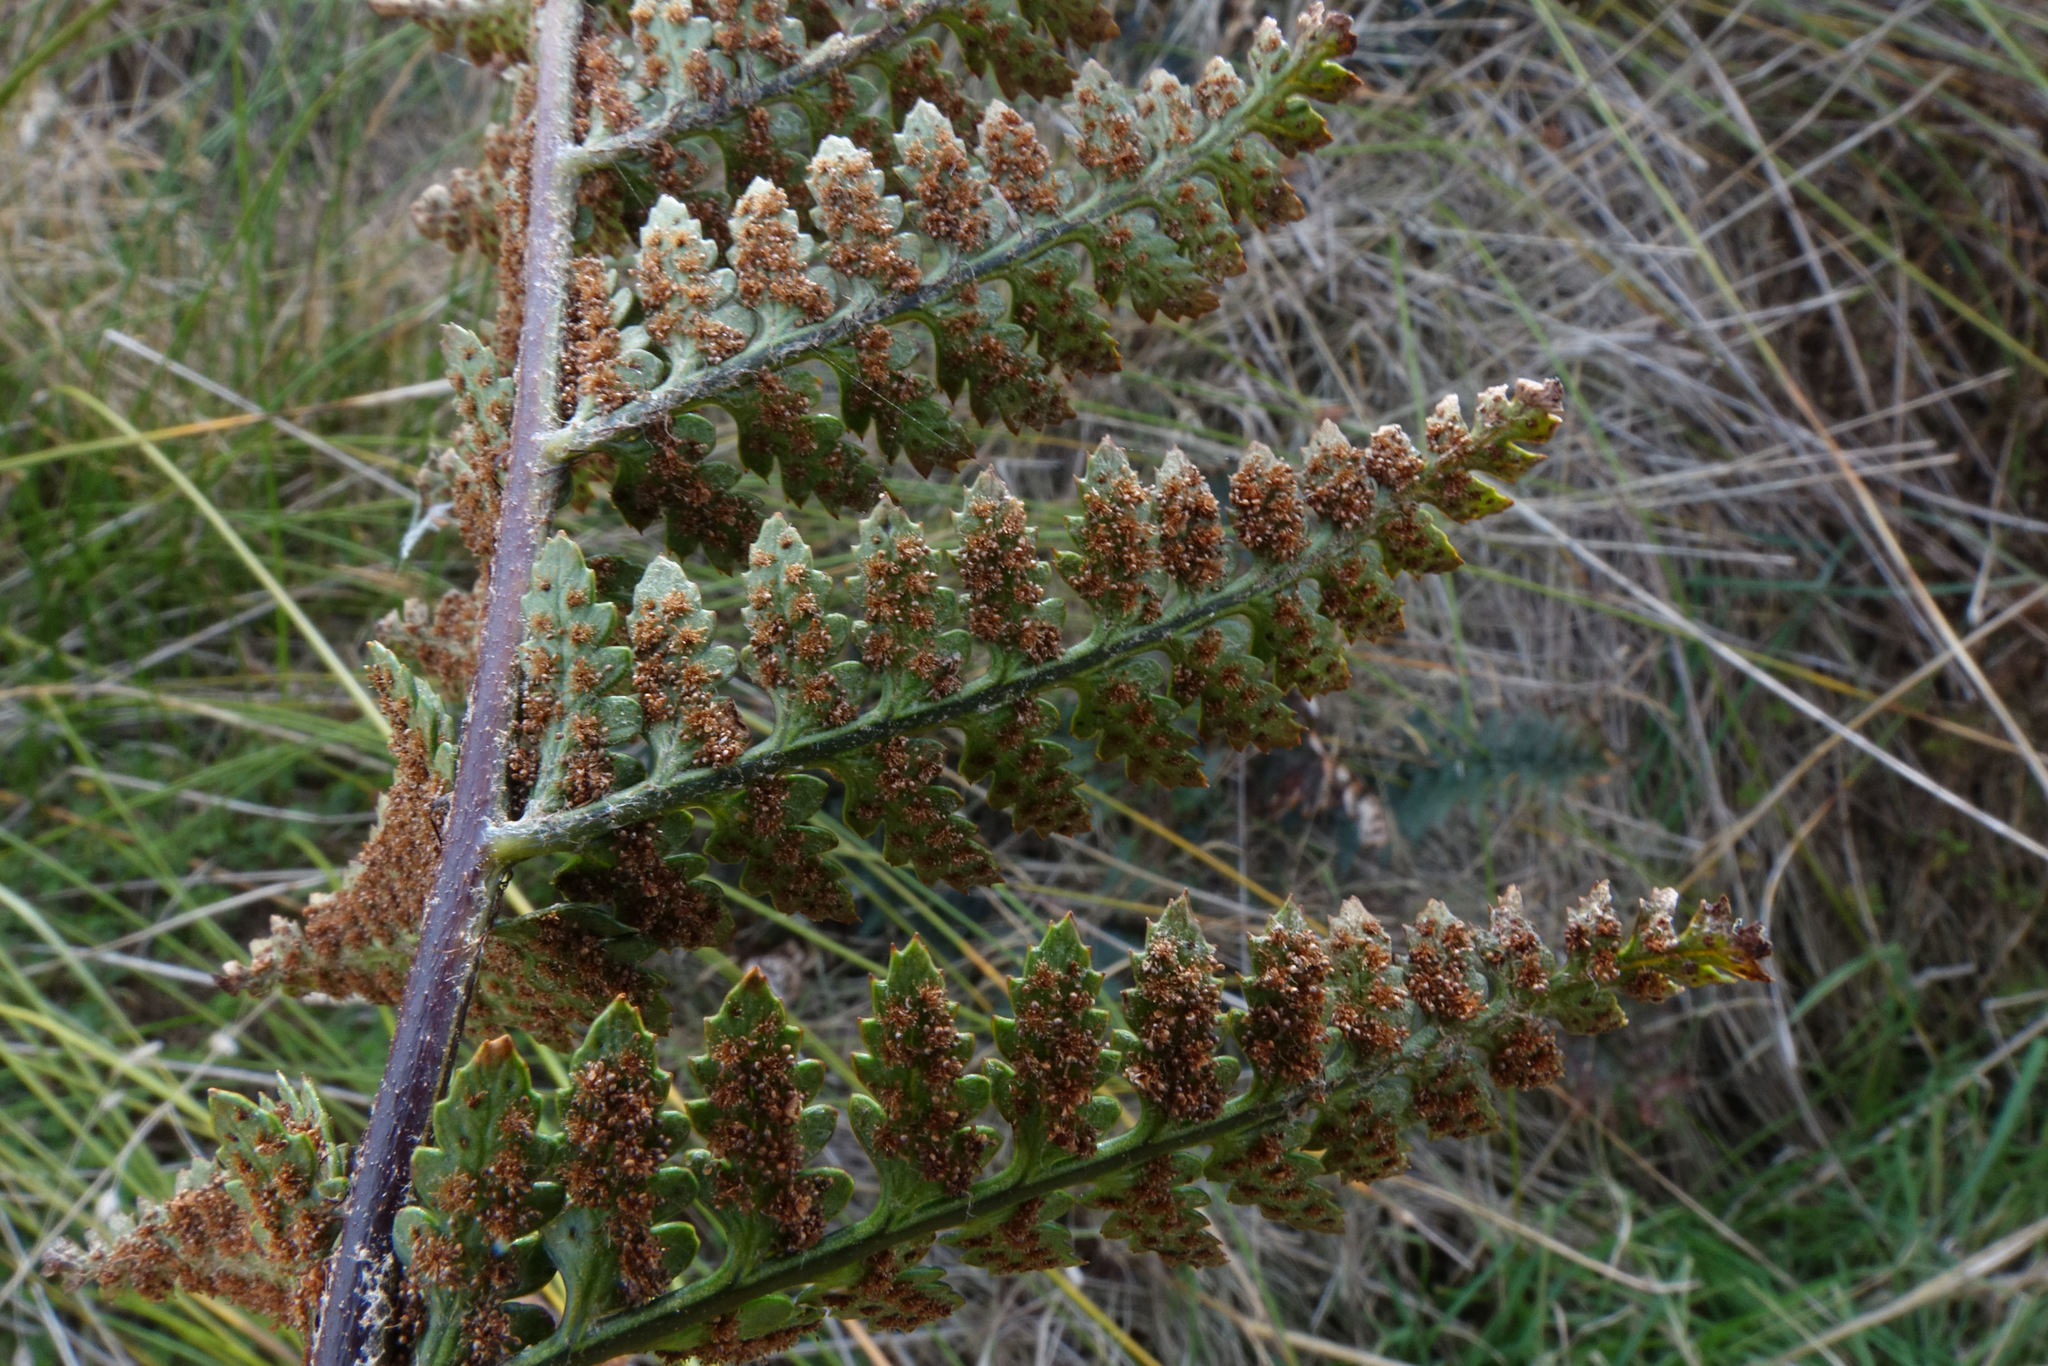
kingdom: Plantae
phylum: Tracheophyta
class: Polypodiopsida
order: Polypodiales
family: Dryopteridaceae
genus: Polystichum
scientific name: Polystichum neozelandicum
